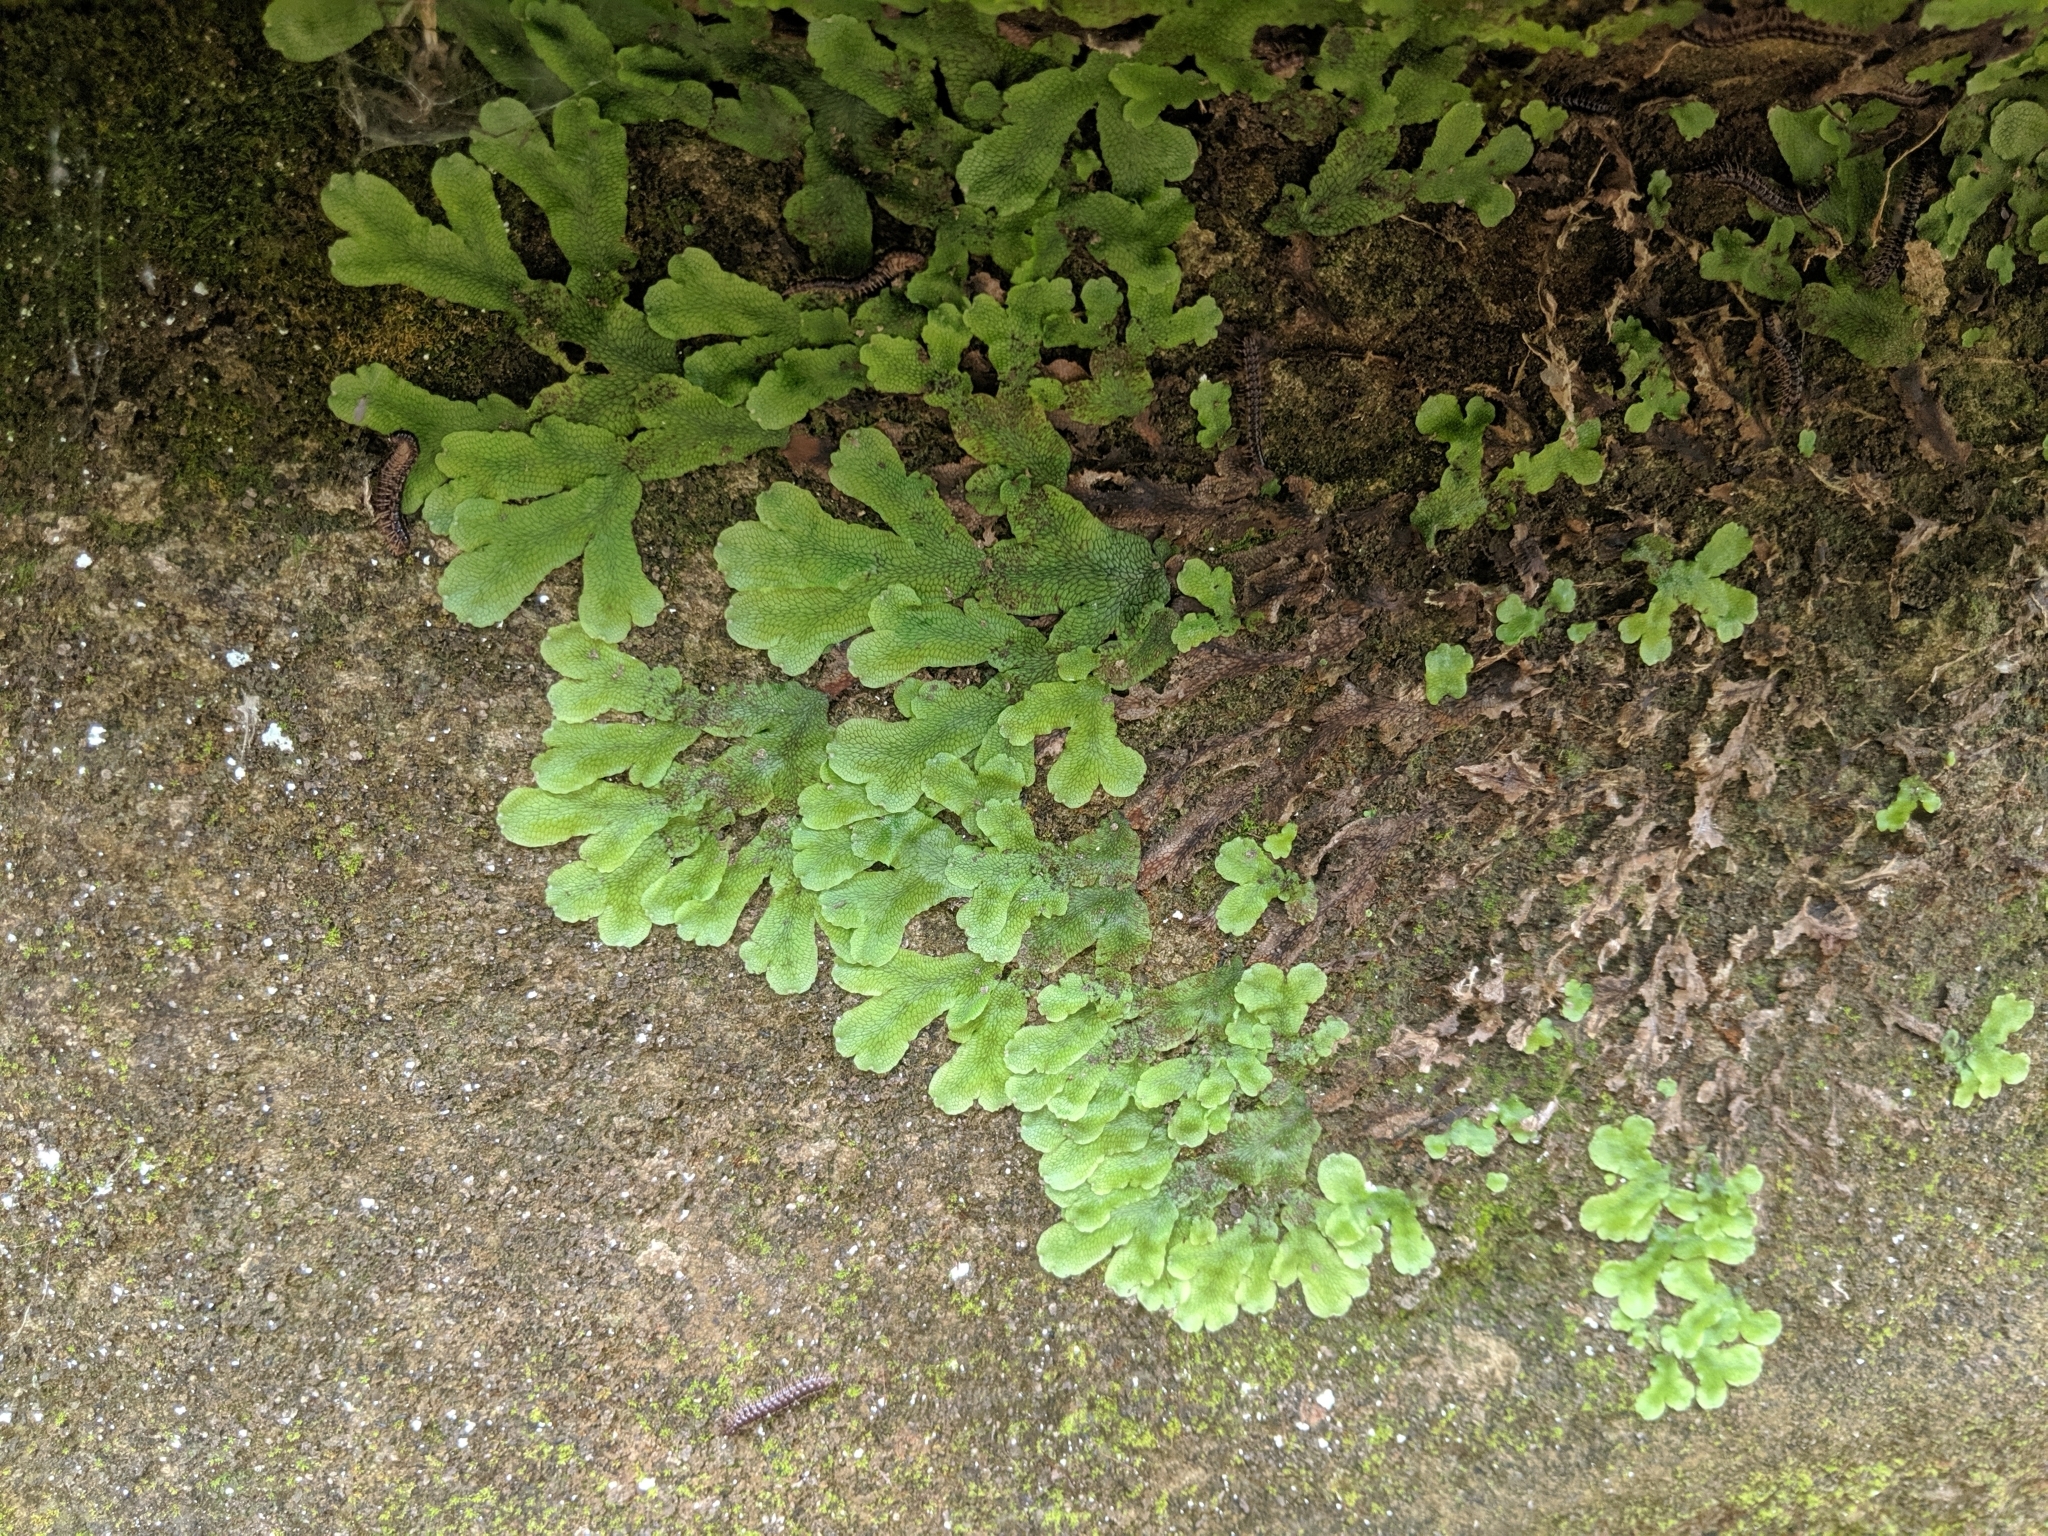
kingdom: Plantae
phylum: Marchantiophyta
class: Marchantiopsida
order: Marchantiales
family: Conocephalaceae
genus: Conocephalum
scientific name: Conocephalum salebrosum
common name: Cat-tongue liverwort
